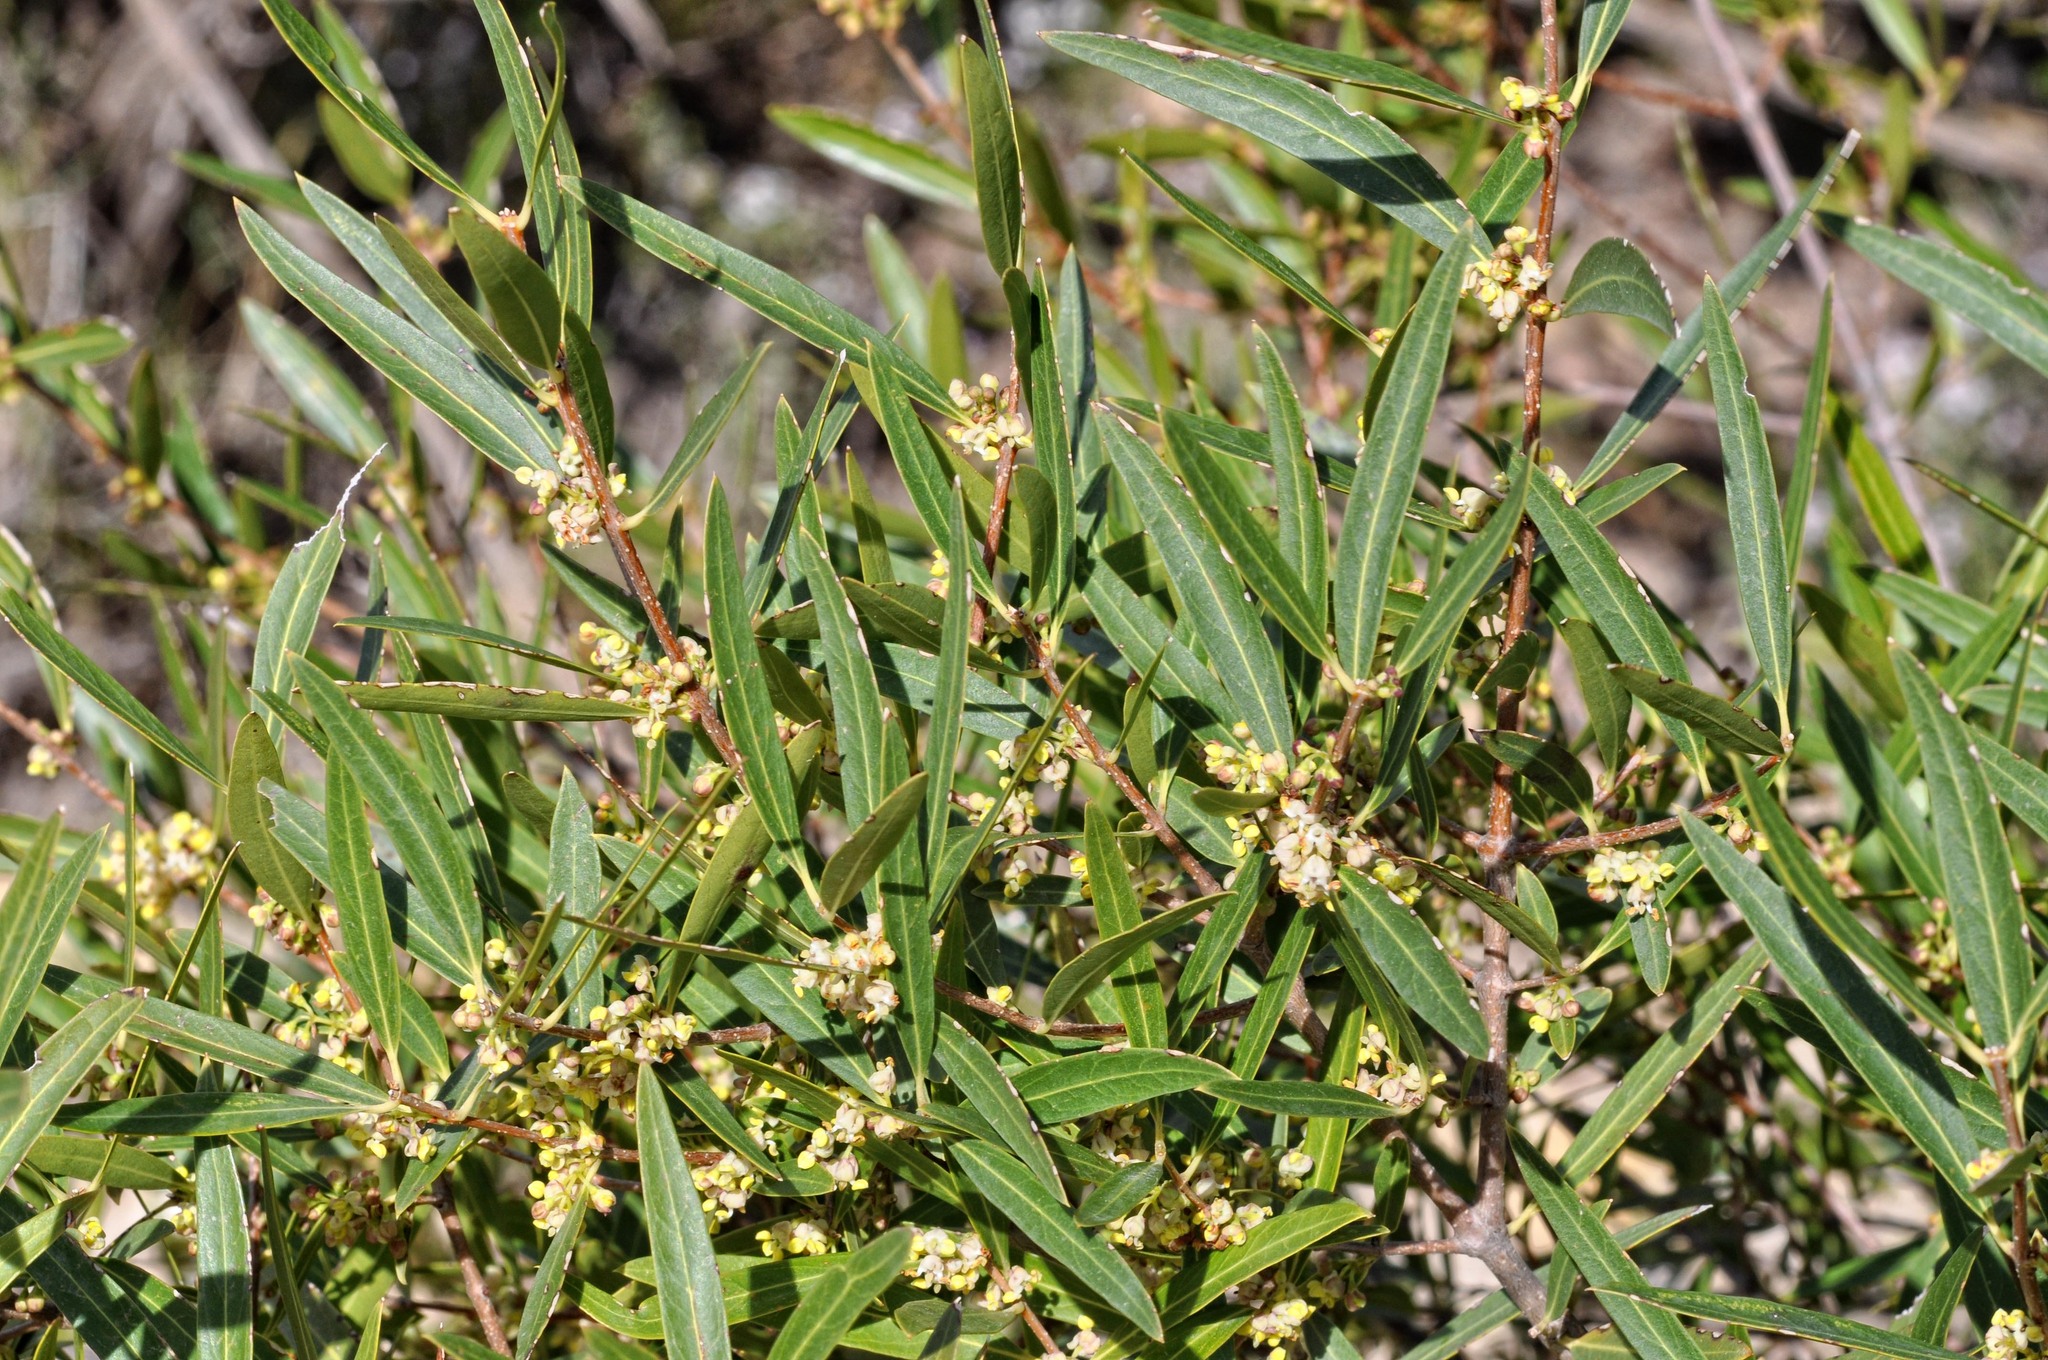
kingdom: Plantae
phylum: Tracheophyta
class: Magnoliopsida
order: Lamiales
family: Oleaceae
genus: Phillyrea
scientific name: Phillyrea angustifolia
